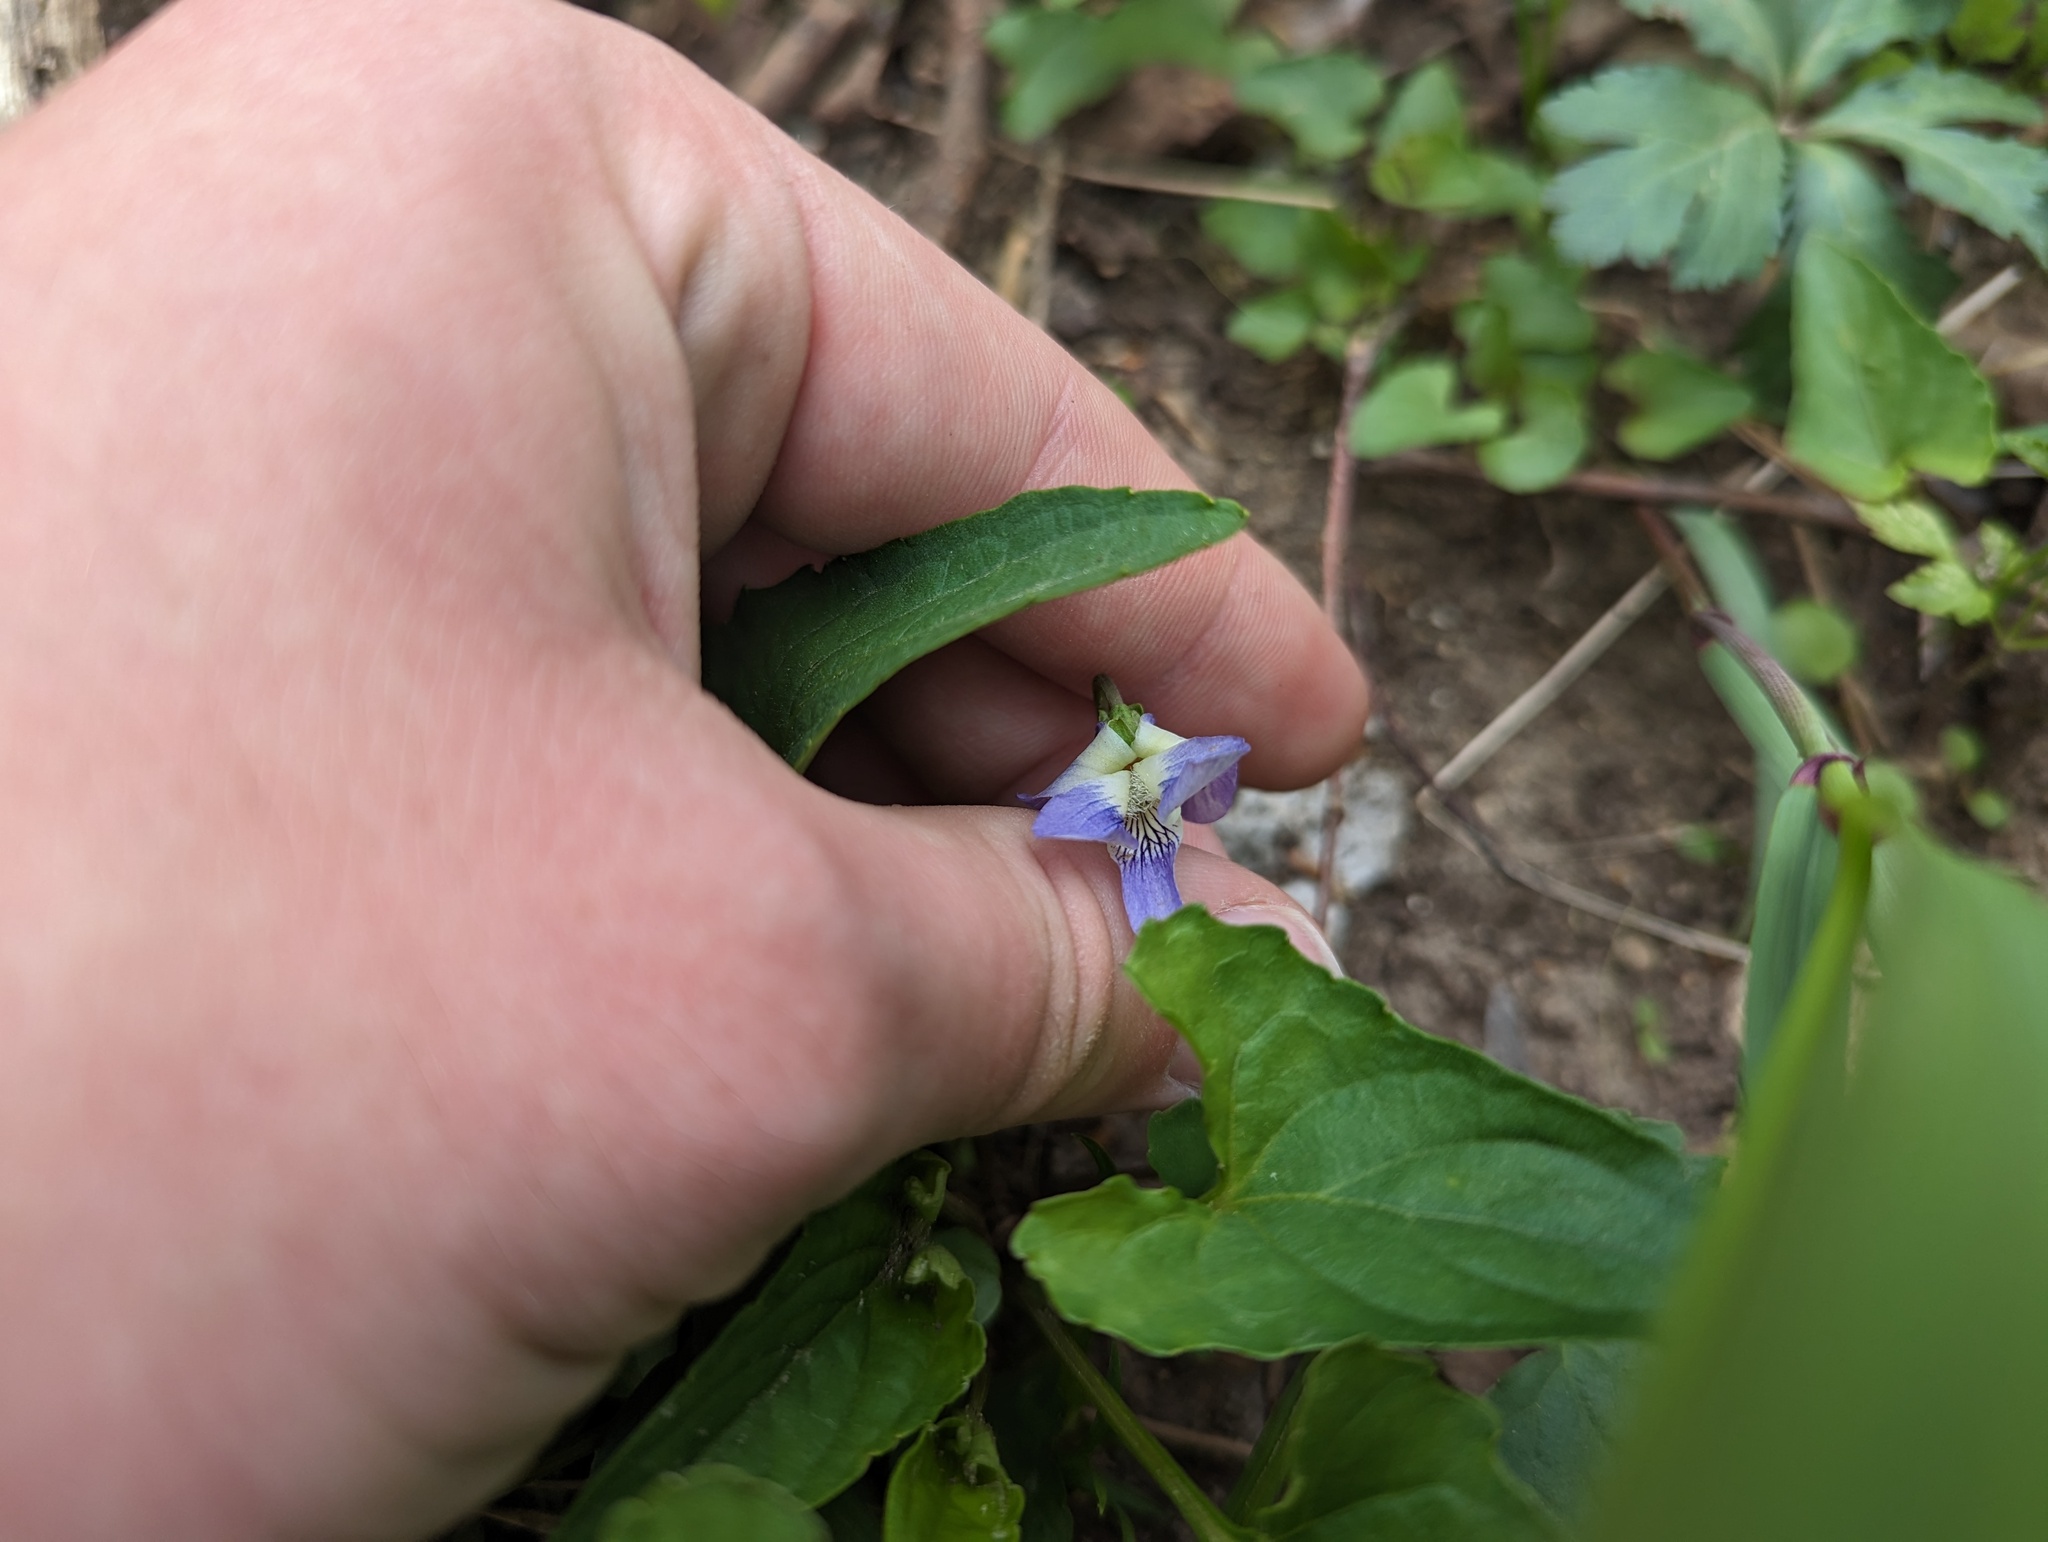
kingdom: Plantae
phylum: Tracheophyta
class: Magnoliopsida
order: Malpighiales
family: Violaceae
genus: Viola
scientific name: Viola missouriensis
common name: Missouri violet
